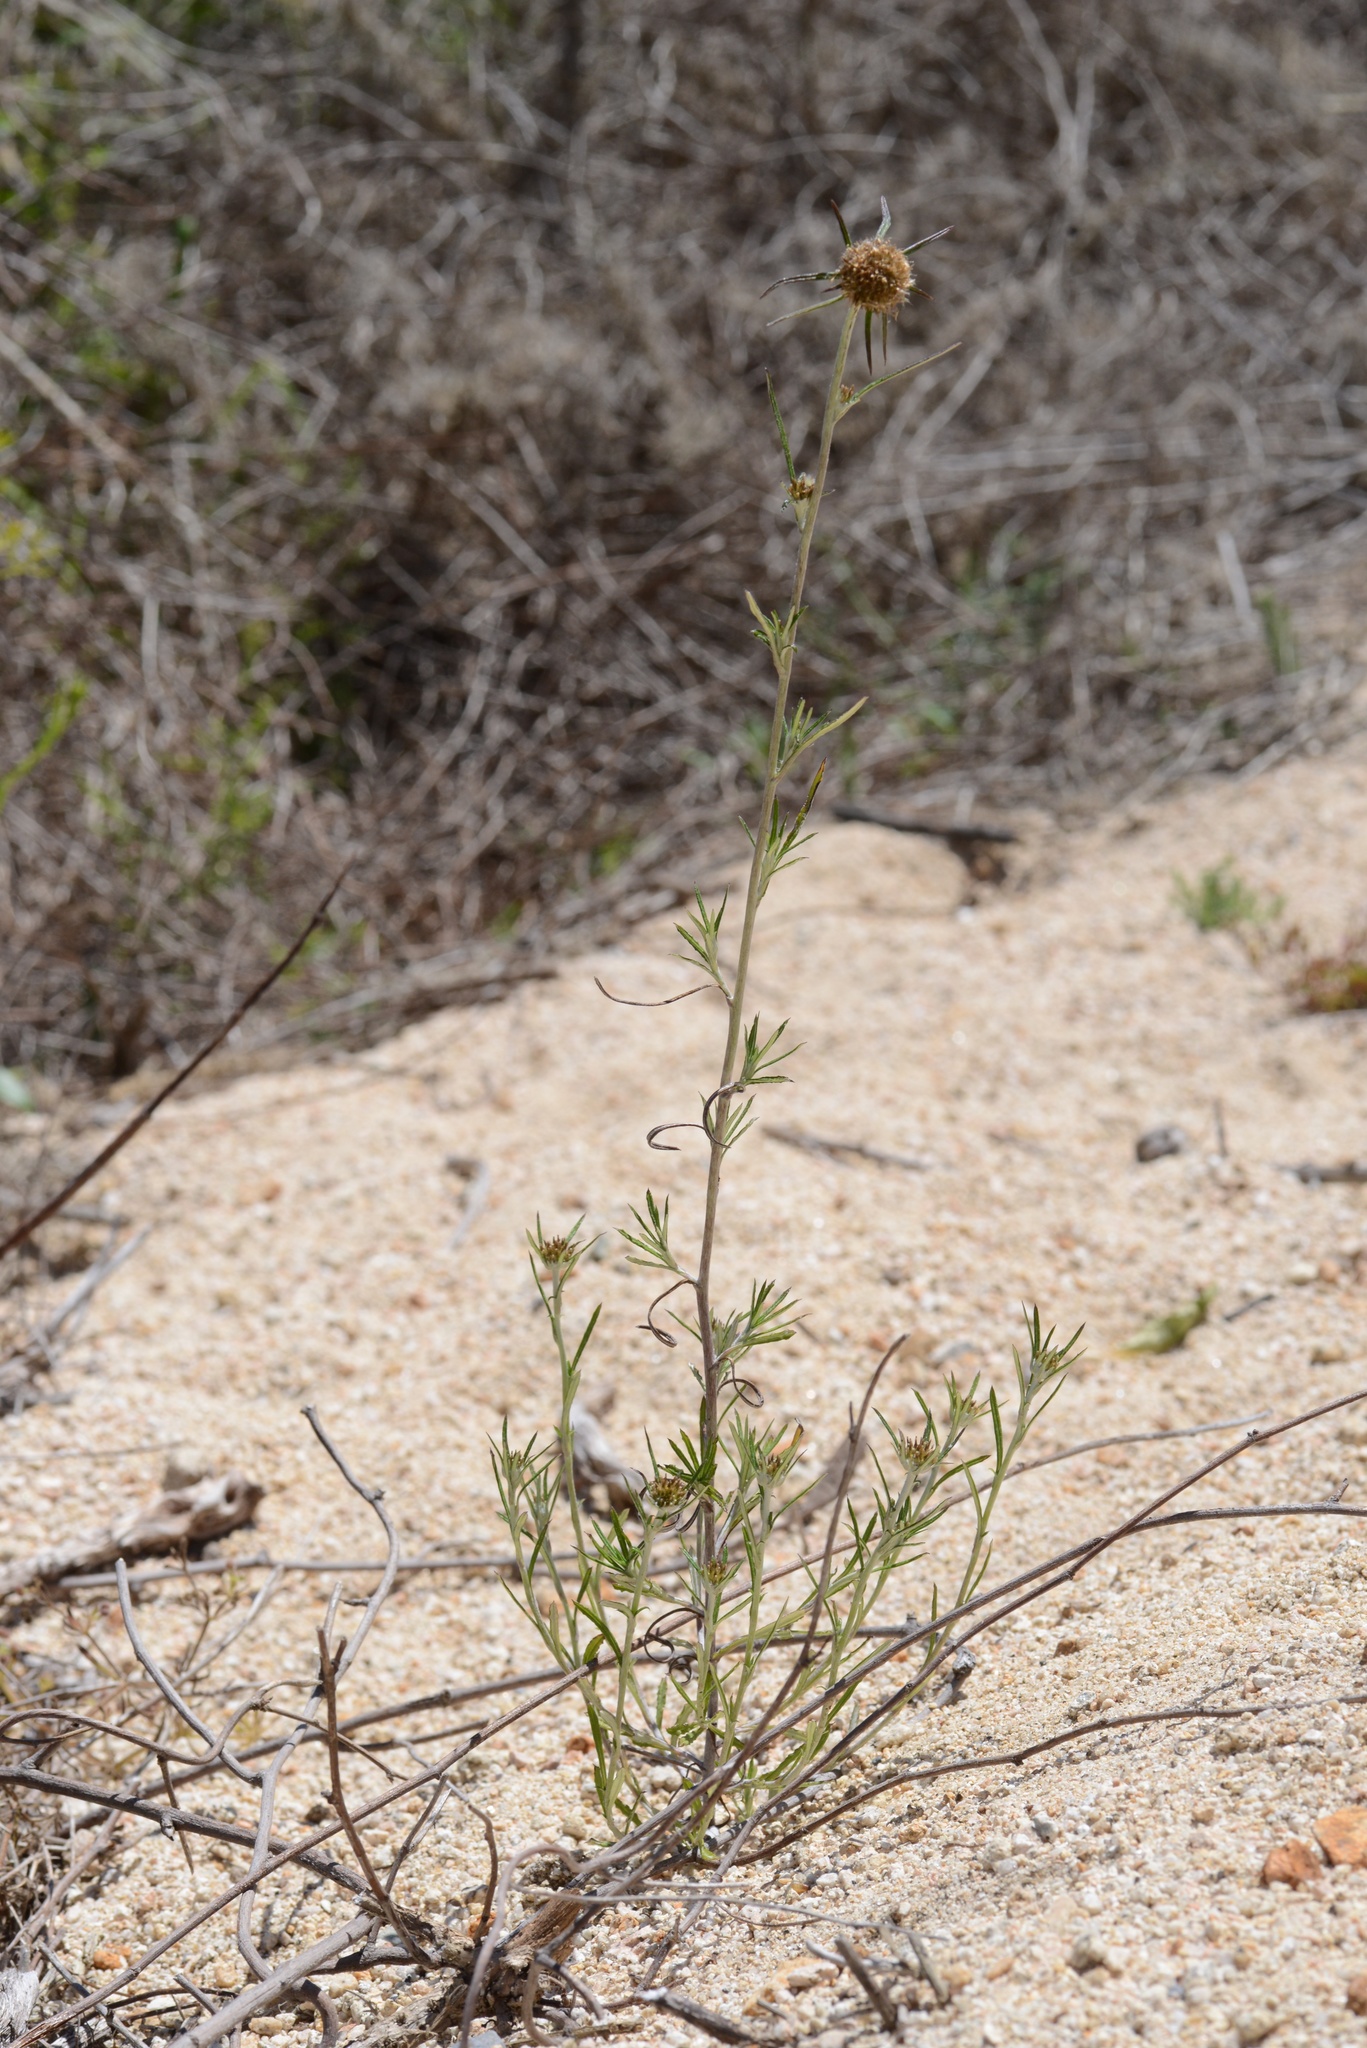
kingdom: Plantae
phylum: Tracheophyta
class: Magnoliopsida
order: Asterales
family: Asteraceae
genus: Euchiton
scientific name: Euchiton involucratus
